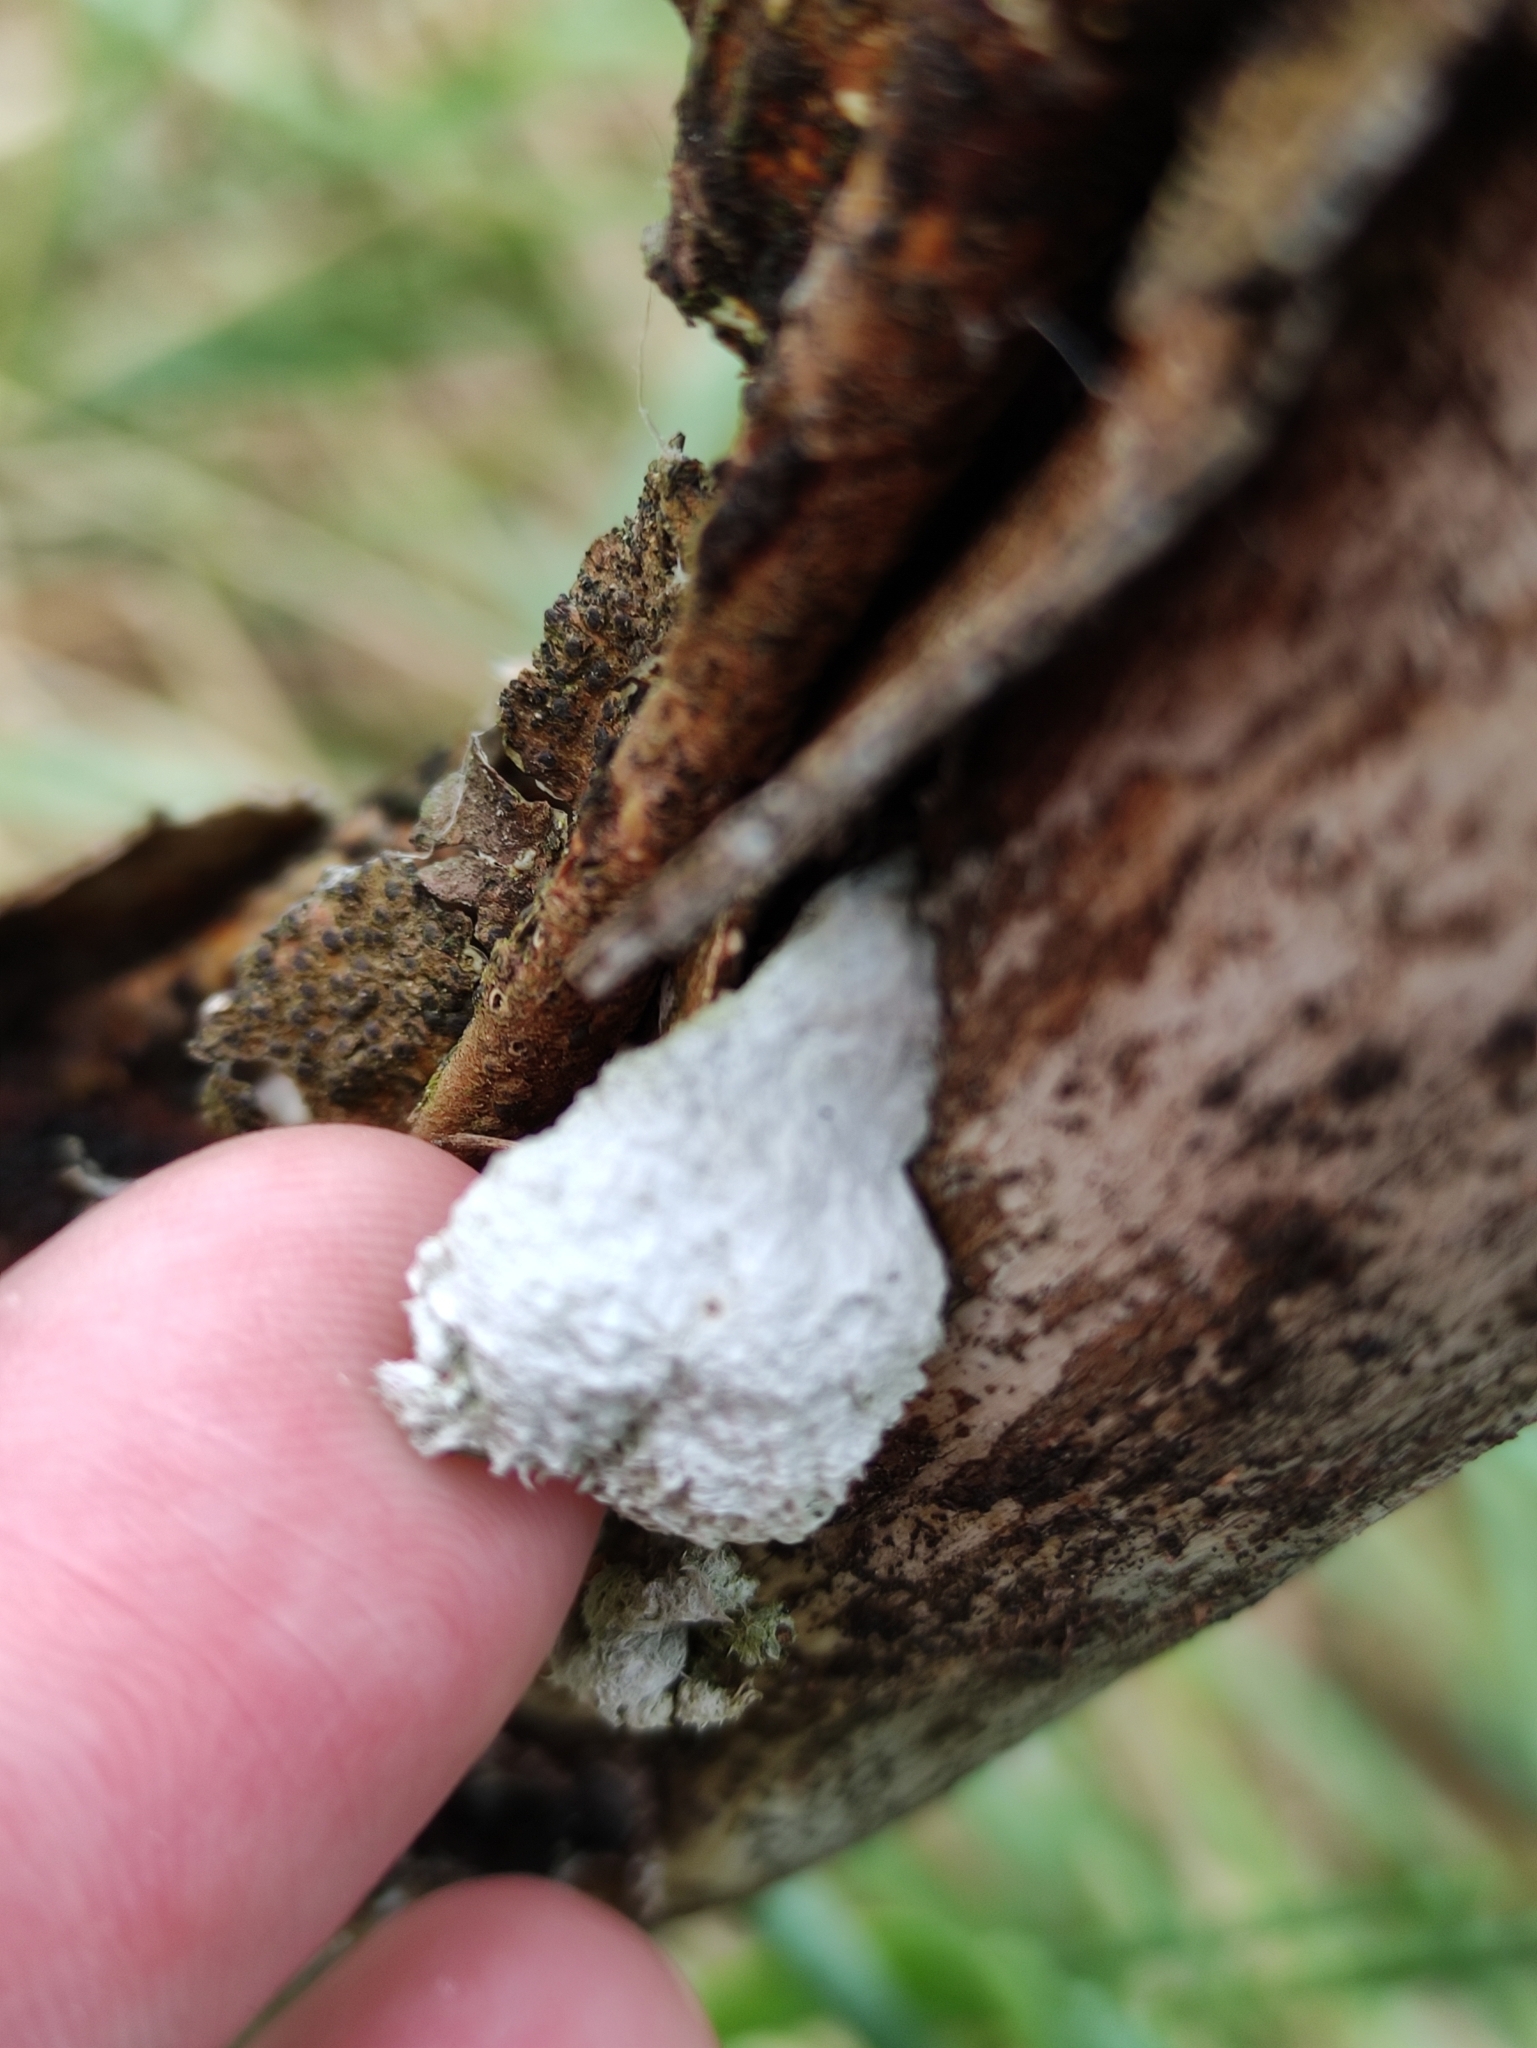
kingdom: Fungi
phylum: Basidiomycota
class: Agaricomycetes
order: Agaricales
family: Schizophyllaceae
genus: Schizophyllum
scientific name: Schizophyllum commune
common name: Common porecrust
